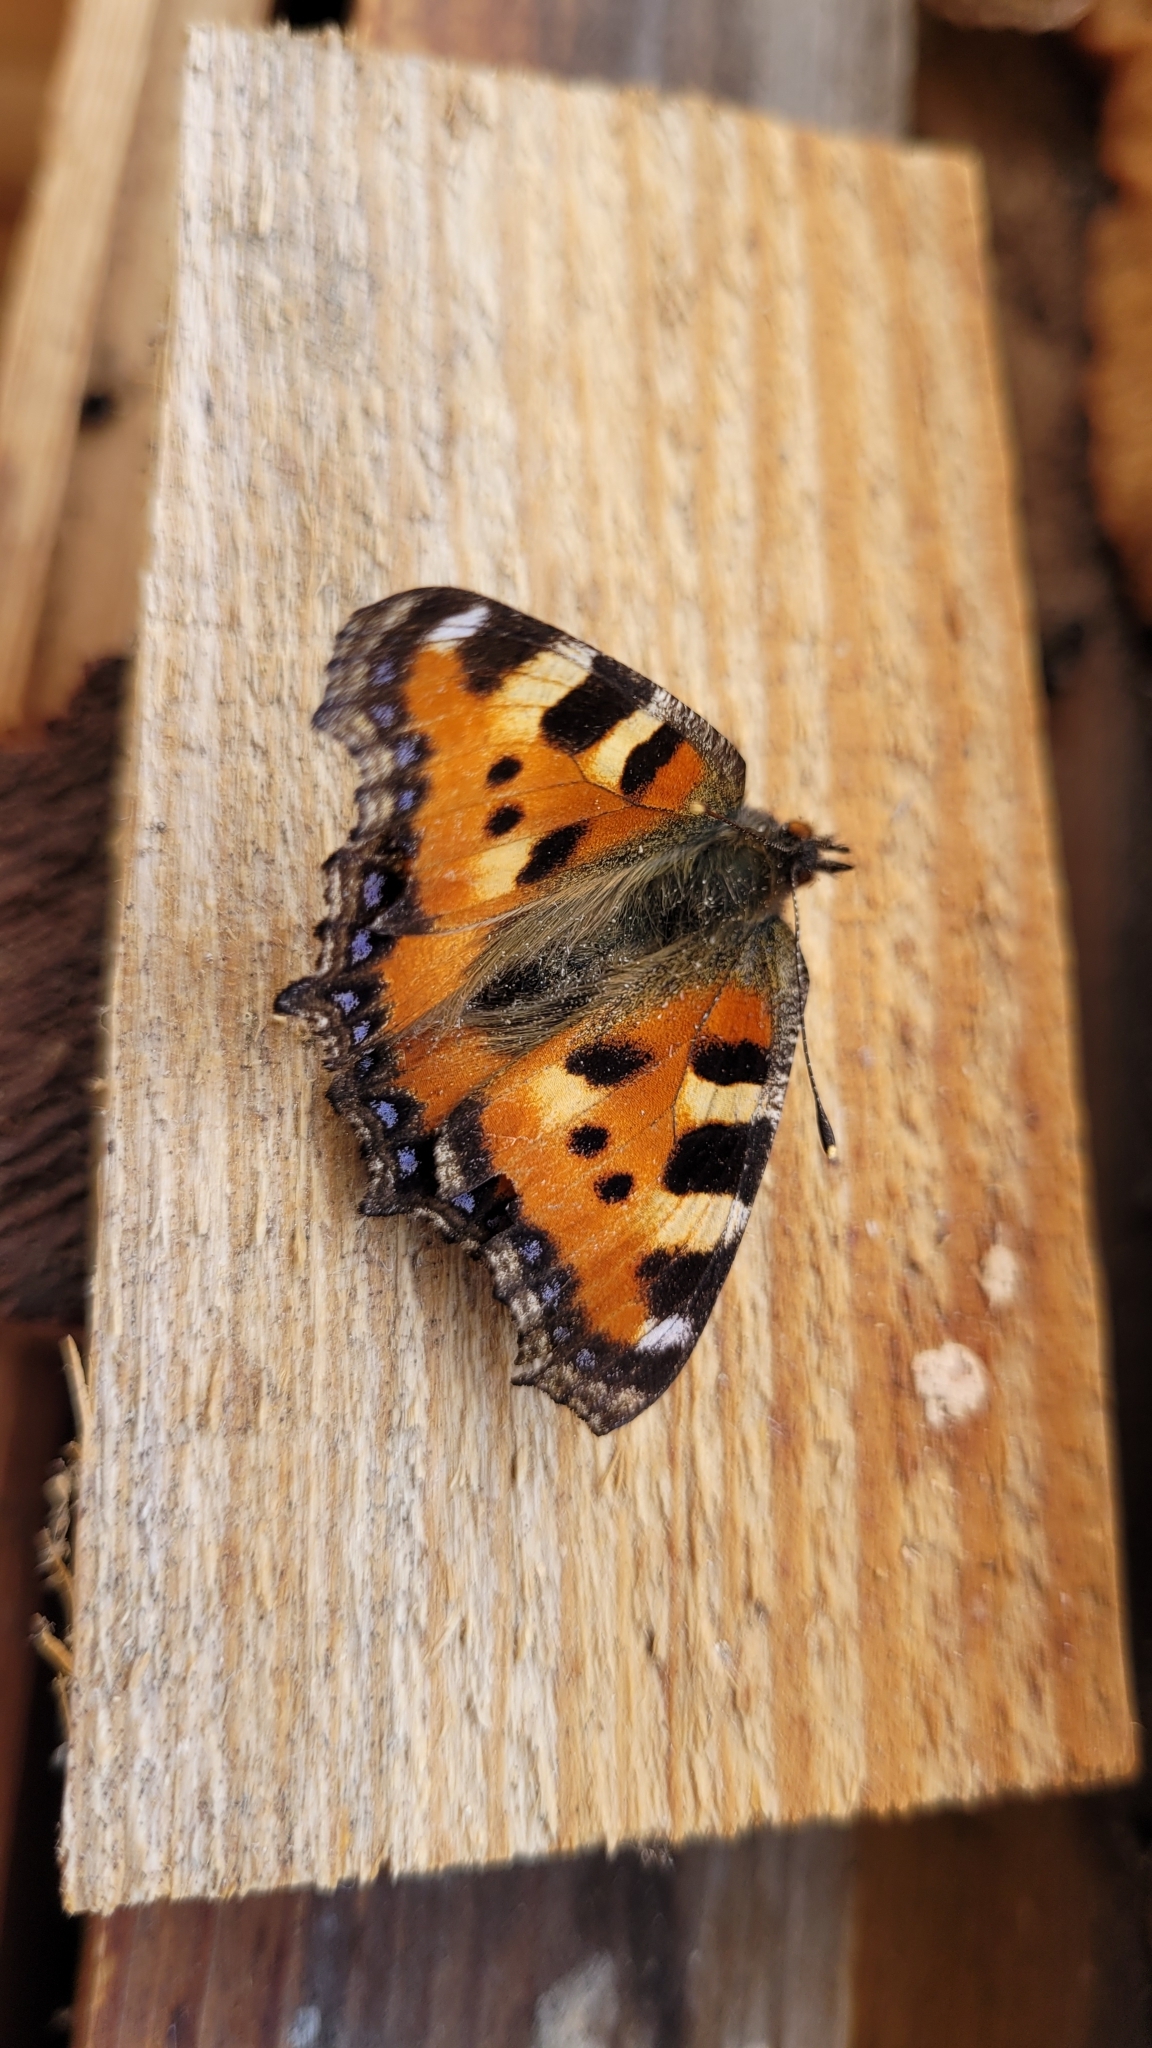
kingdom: Animalia
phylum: Arthropoda
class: Insecta
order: Lepidoptera
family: Nymphalidae
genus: Aglais
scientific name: Aglais urticae
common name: Small tortoiseshell
